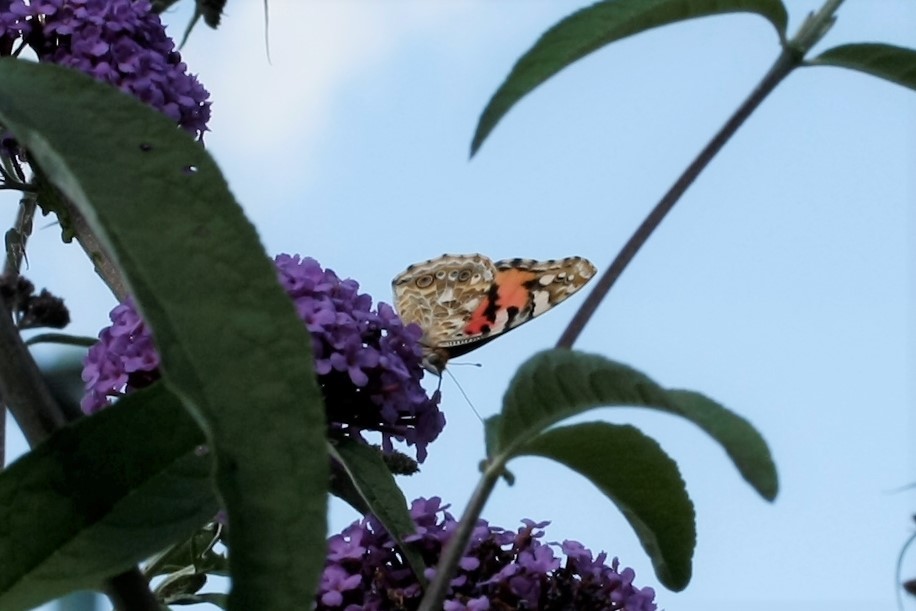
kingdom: Animalia
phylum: Arthropoda
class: Insecta
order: Lepidoptera
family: Nymphalidae
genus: Vanessa
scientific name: Vanessa cardui
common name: Painted lady
